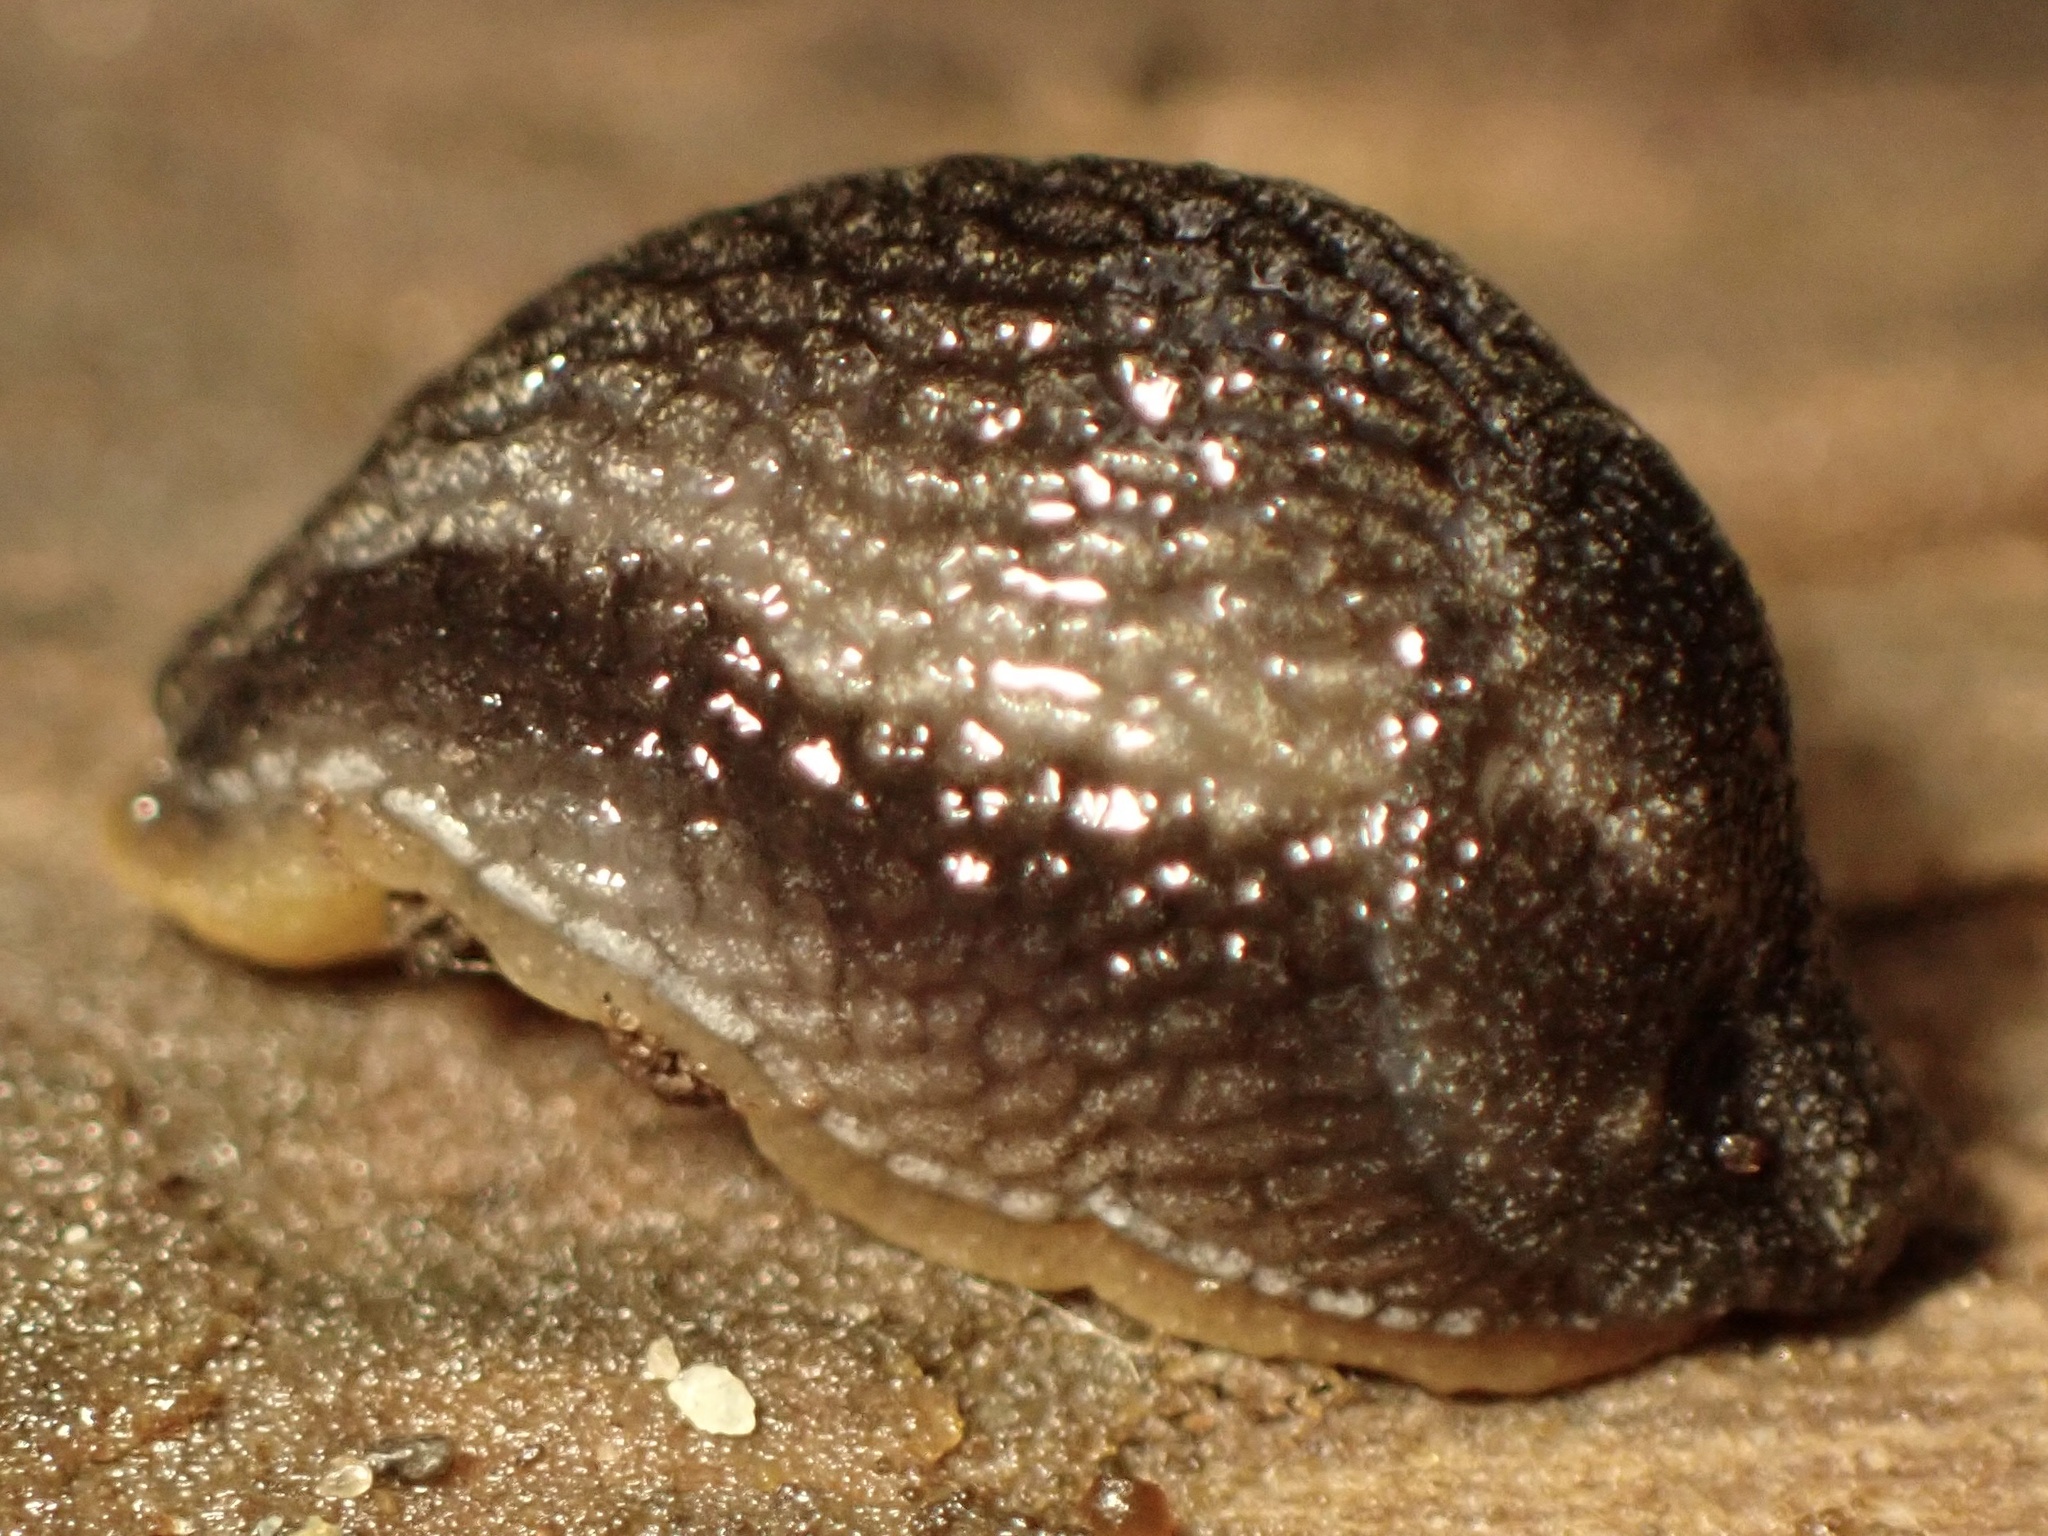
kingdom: Animalia
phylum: Mollusca
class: Gastropoda
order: Stylommatophora
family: Arionidae
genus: Kobeltia
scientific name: Kobeltia
